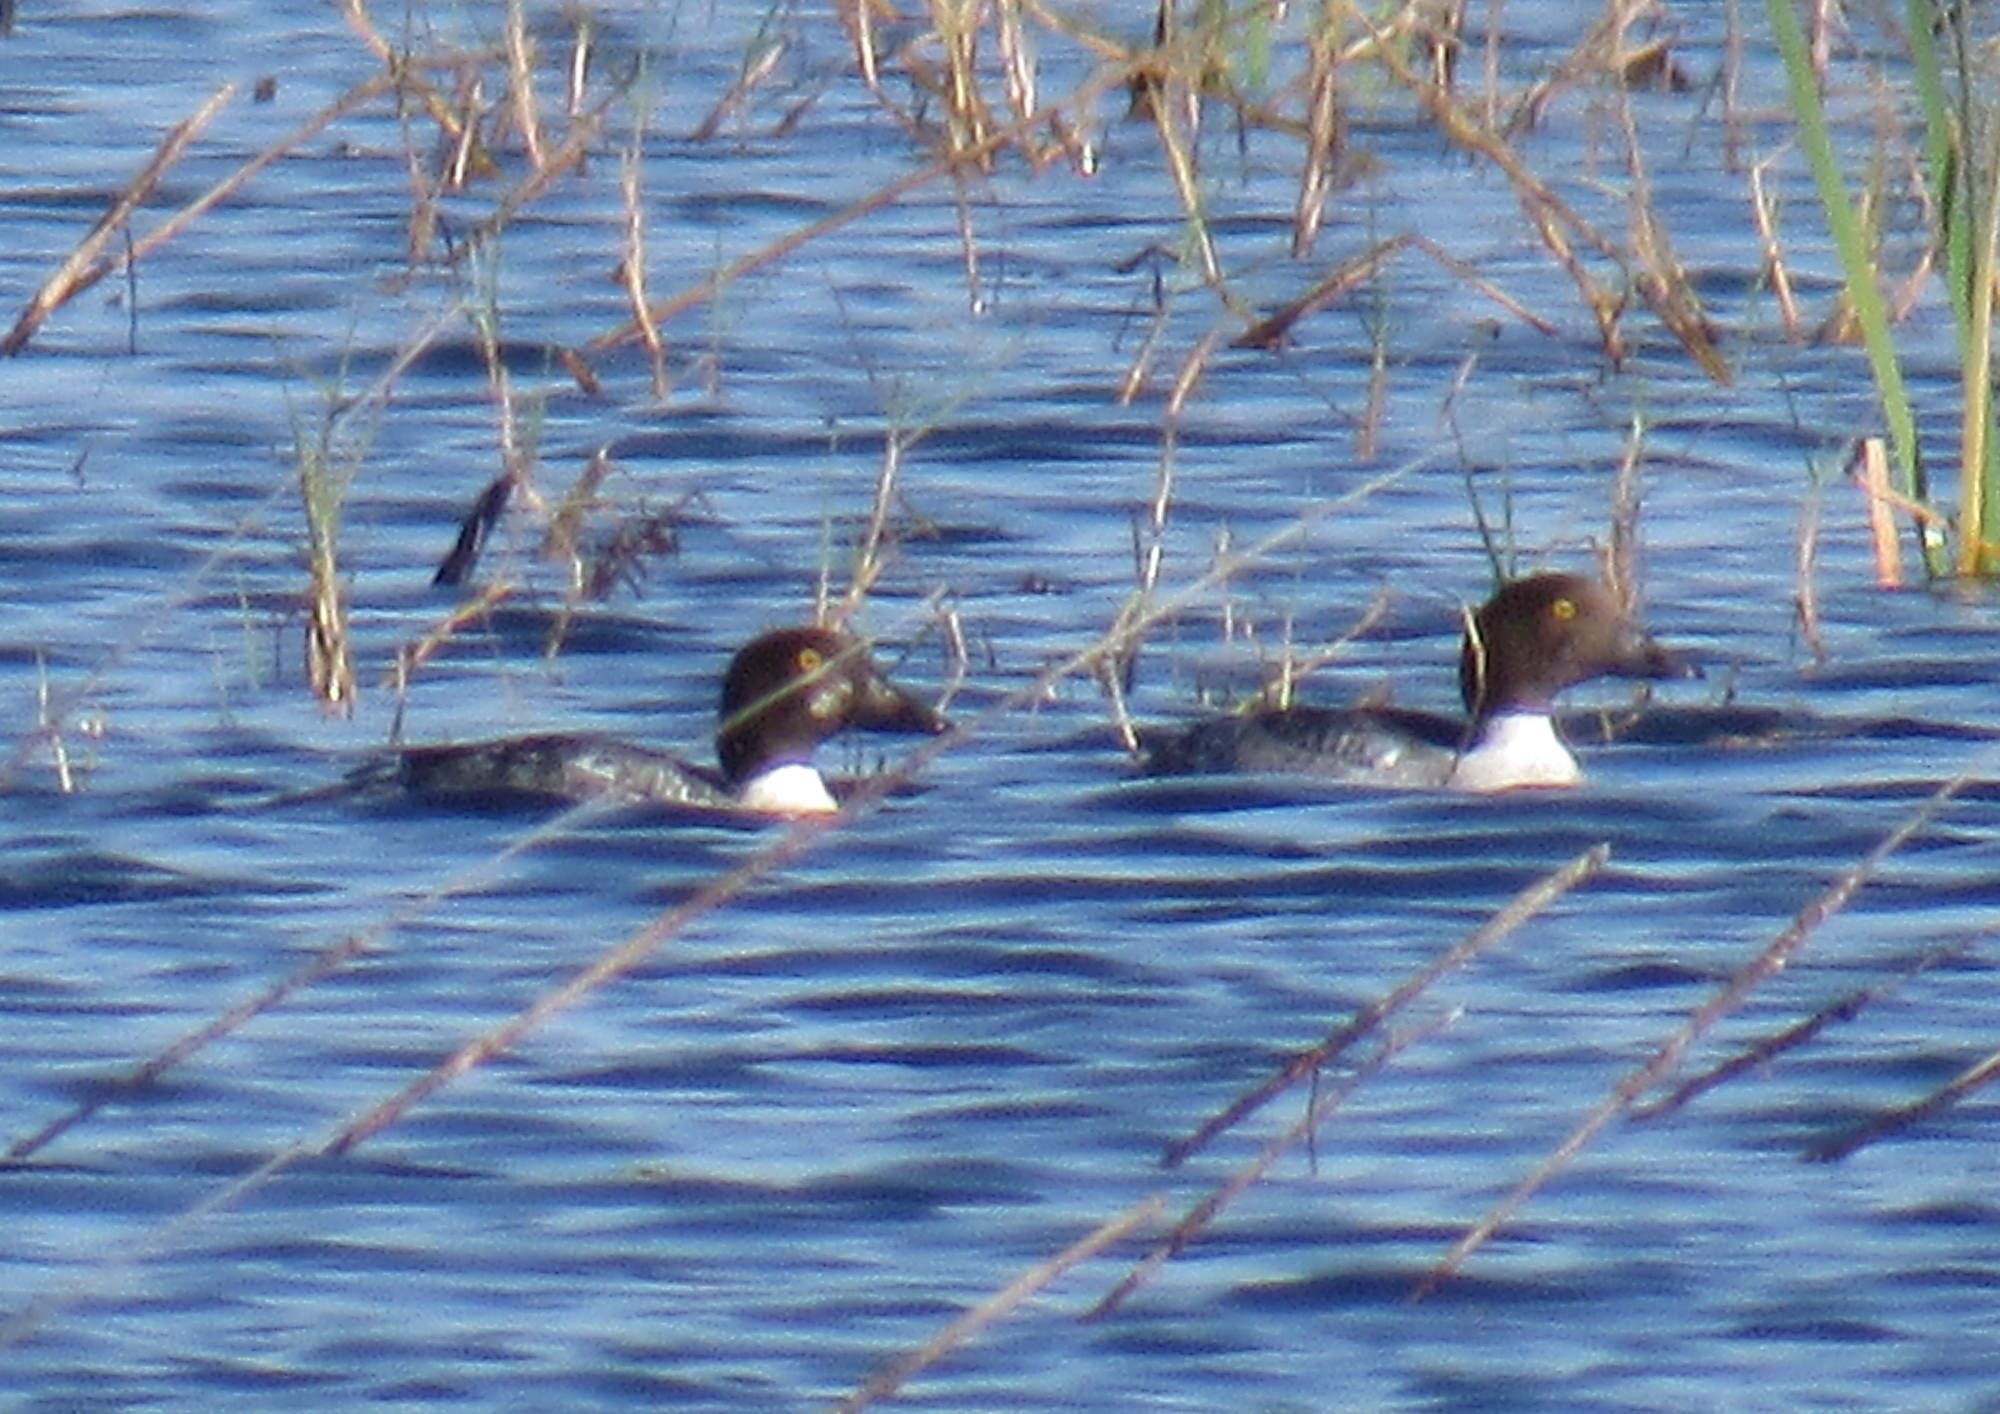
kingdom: Animalia
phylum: Chordata
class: Aves
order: Anseriformes
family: Anatidae
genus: Bucephala
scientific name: Bucephala clangula
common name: Common goldeneye
